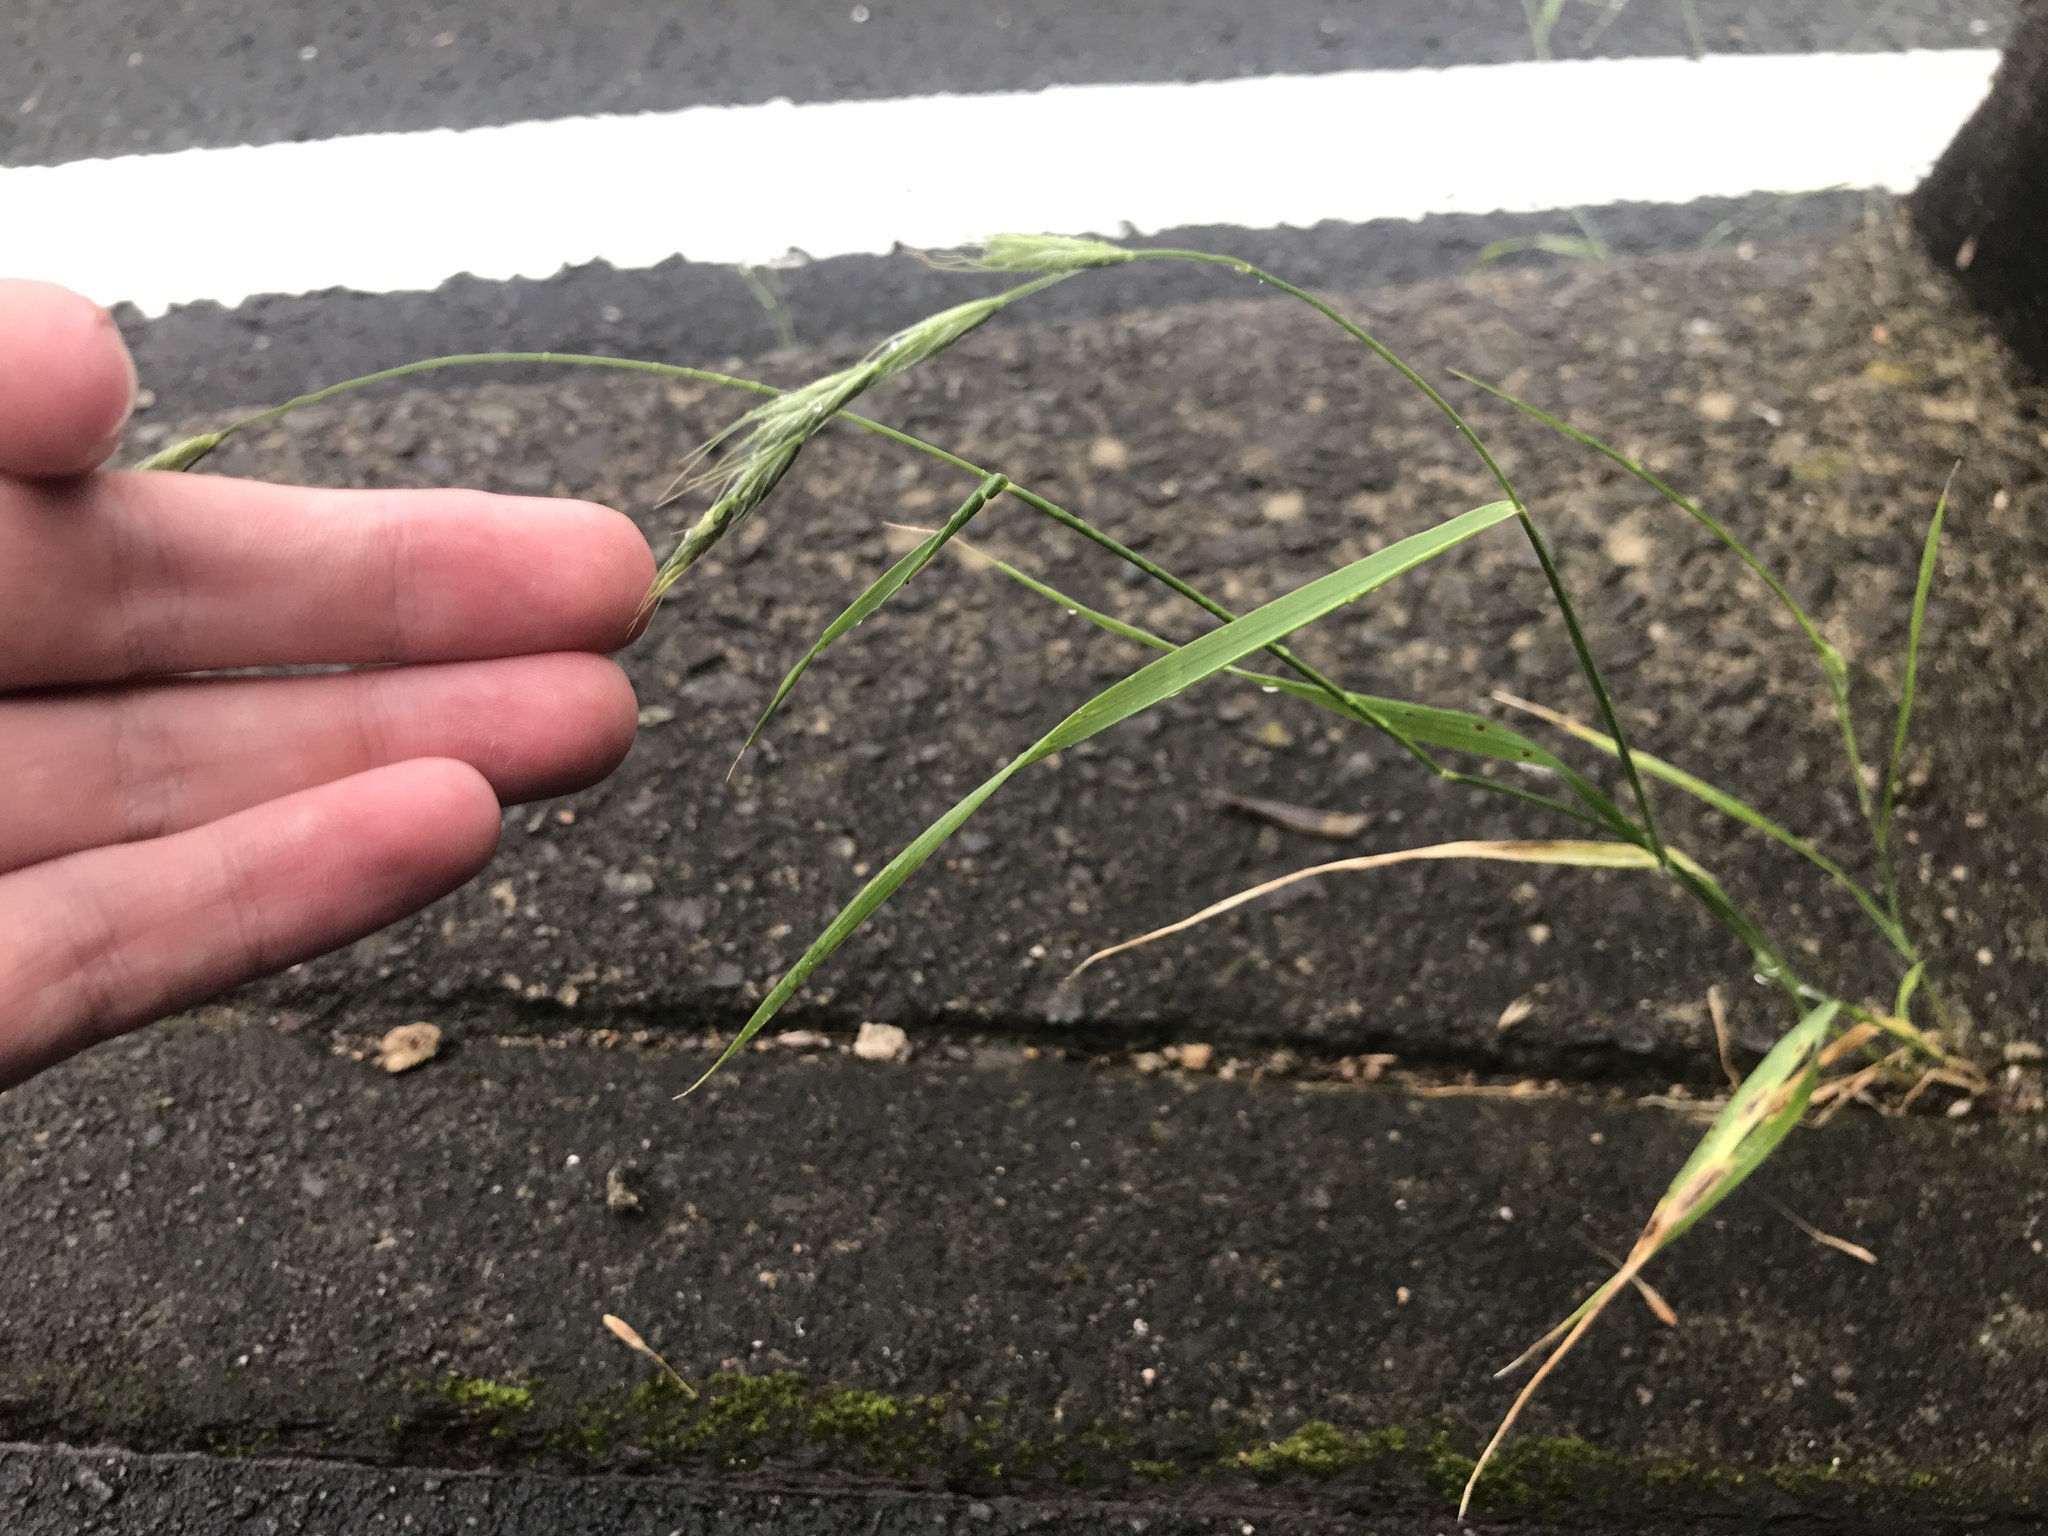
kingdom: Plantae
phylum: Tracheophyta
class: Liliopsida
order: Poales
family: Poaceae
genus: Elymus
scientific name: Elymus ciliaris
